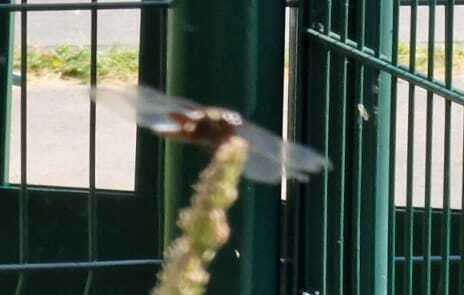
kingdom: Animalia
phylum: Arthropoda
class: Insecta
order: Odonata
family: Libellulidae
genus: Libellula
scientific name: Libellula depressa
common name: Broad-bodied chaser
